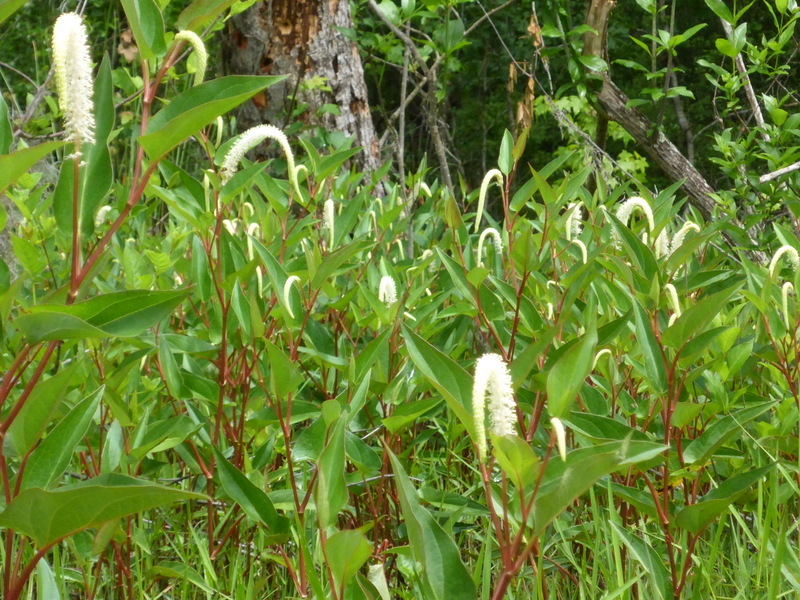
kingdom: Plantae
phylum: Tracheophyta
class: Magnoliopsida
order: Piperales
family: Saururaceae
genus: Saururus
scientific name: Saururus cernuus
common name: Lizard's-tail
